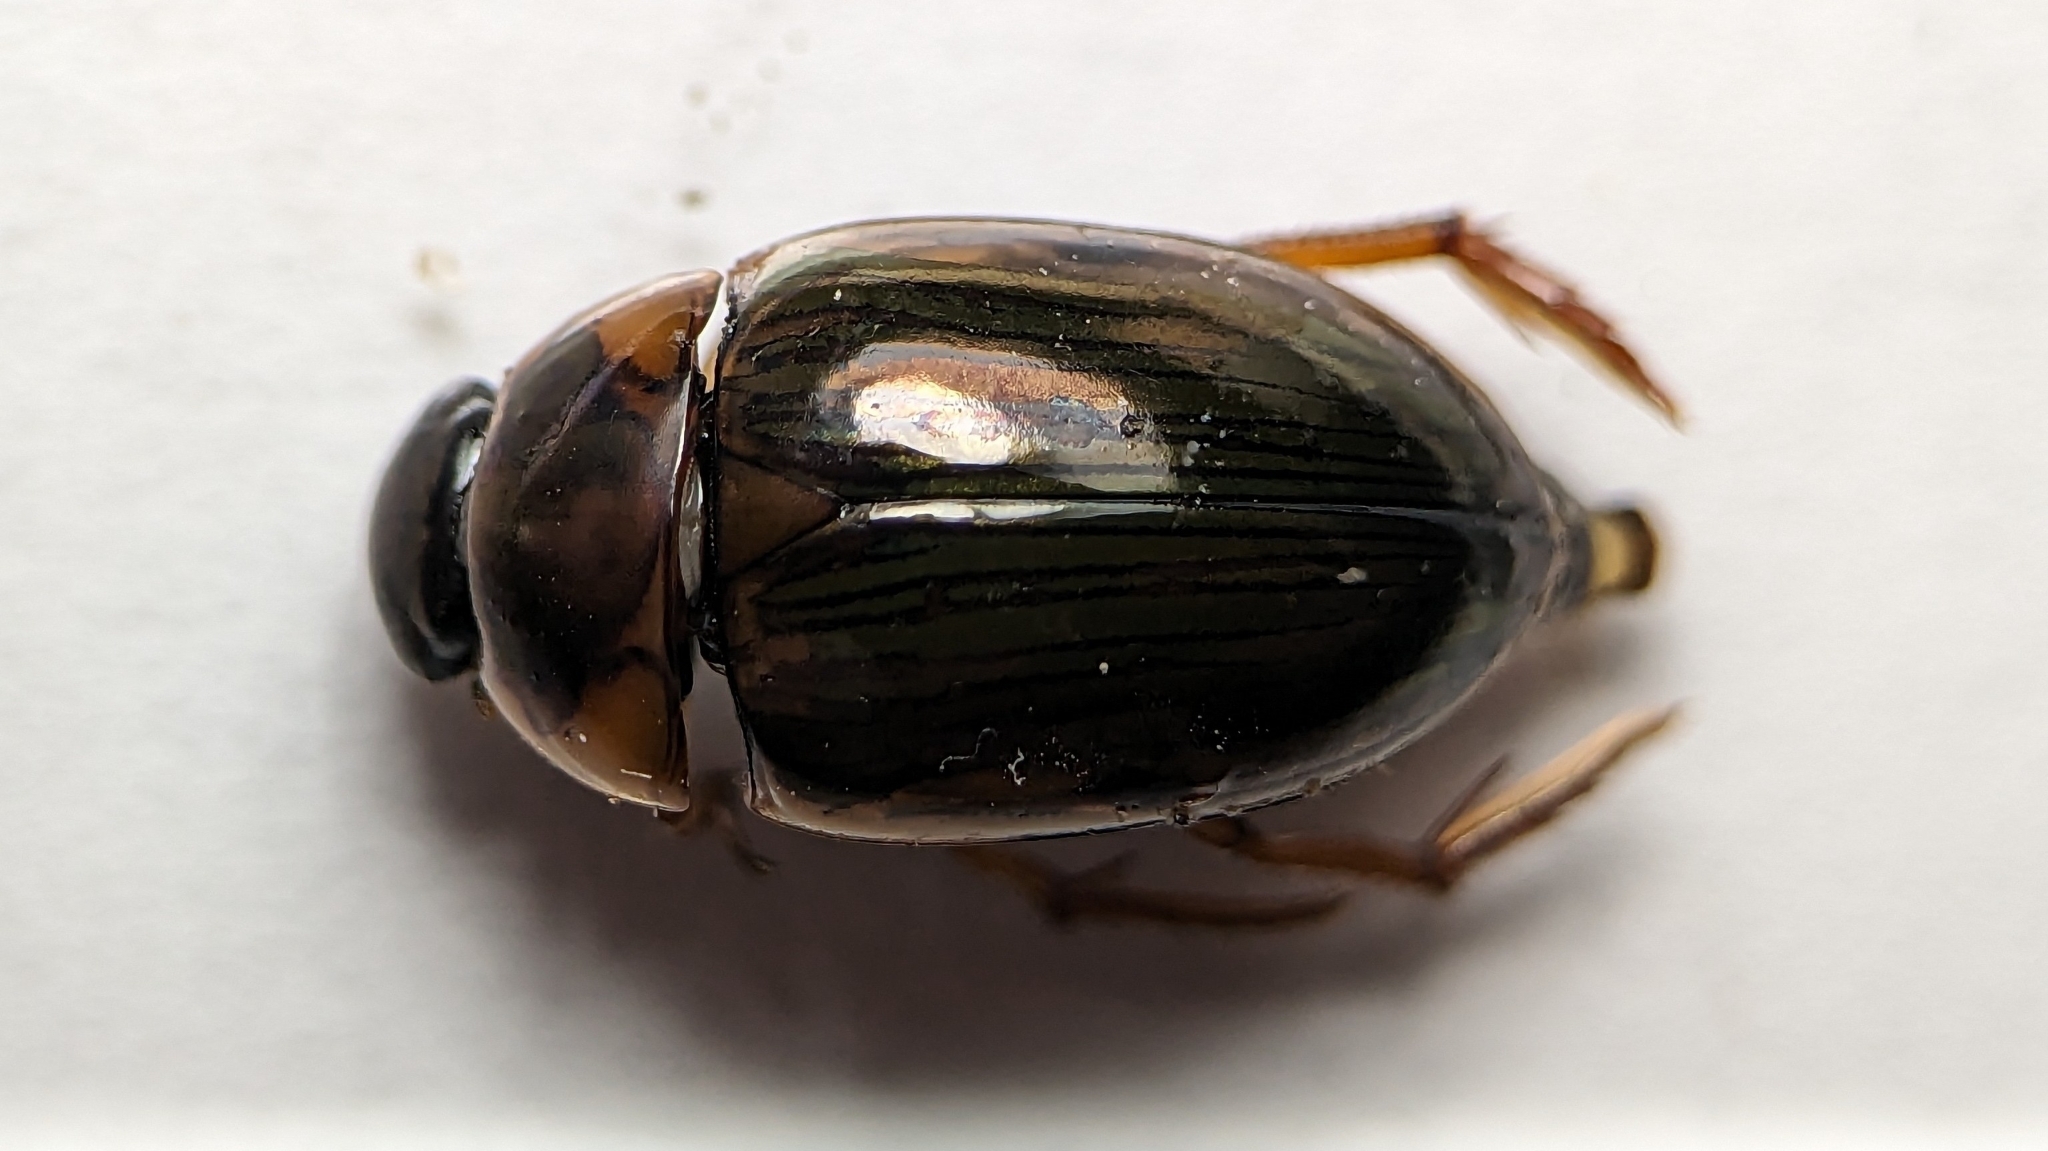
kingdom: Animalia
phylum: Arthropoda
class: Insecta
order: Coleoptera
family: Hydrophilidae
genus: Tropisternus
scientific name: Tropisternus collaris
